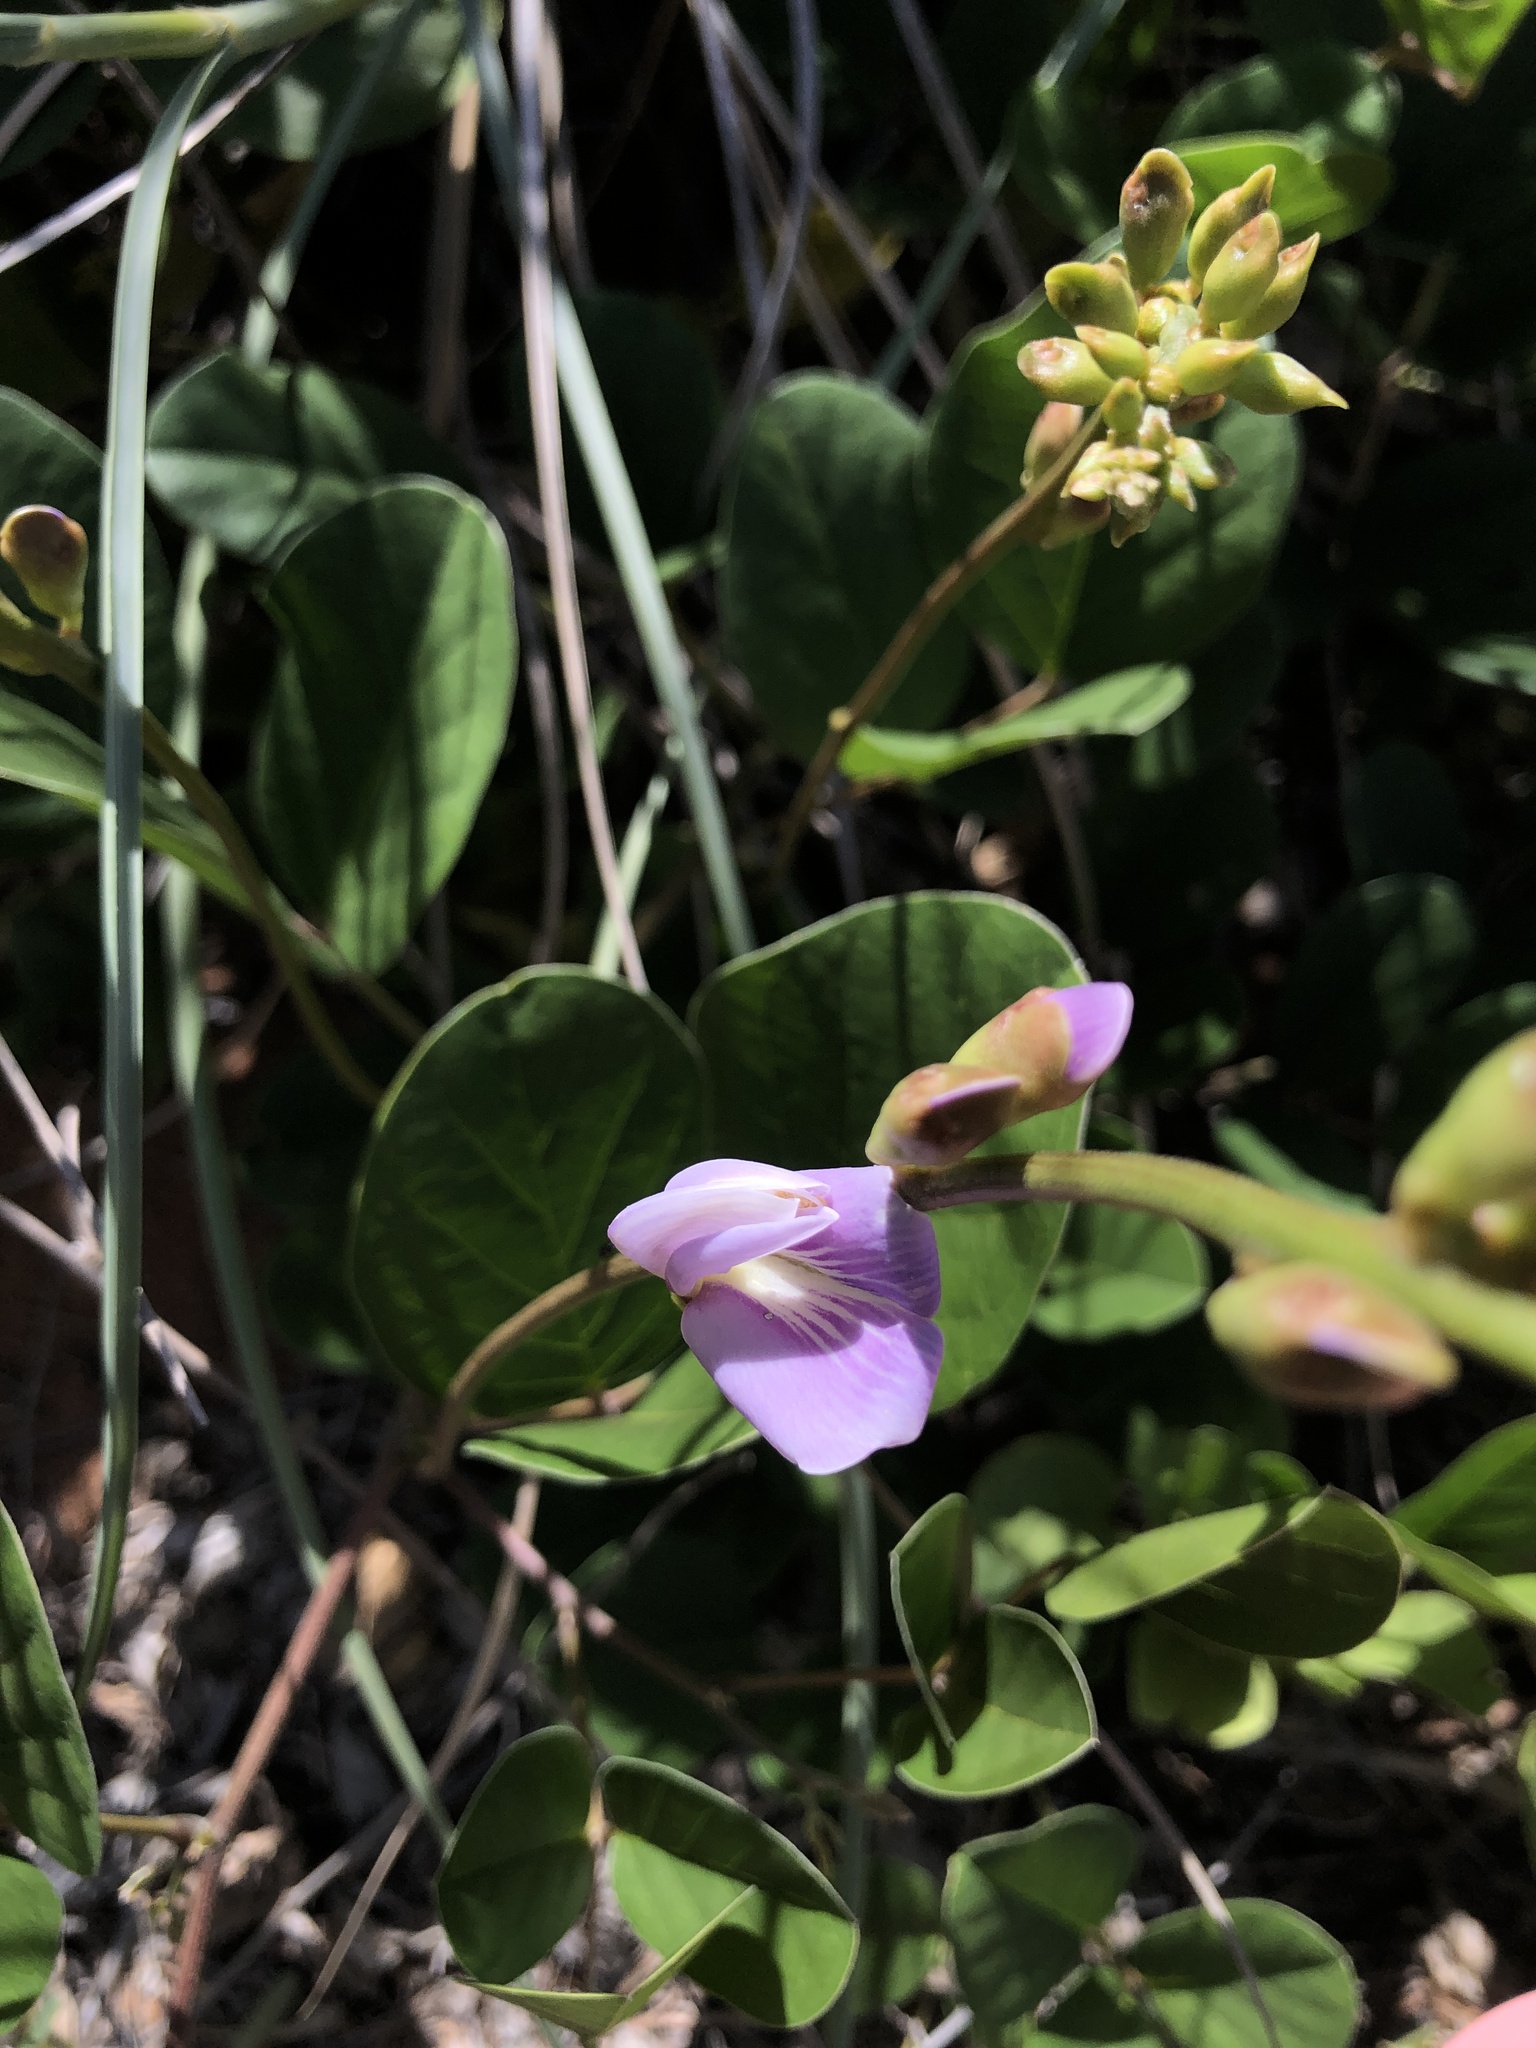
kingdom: Plantae
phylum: Tracheophyta
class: Magnoliopsida
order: Fabales
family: Fabaceae
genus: Canavalia
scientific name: Canavalia rosea
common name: Beach-bean
